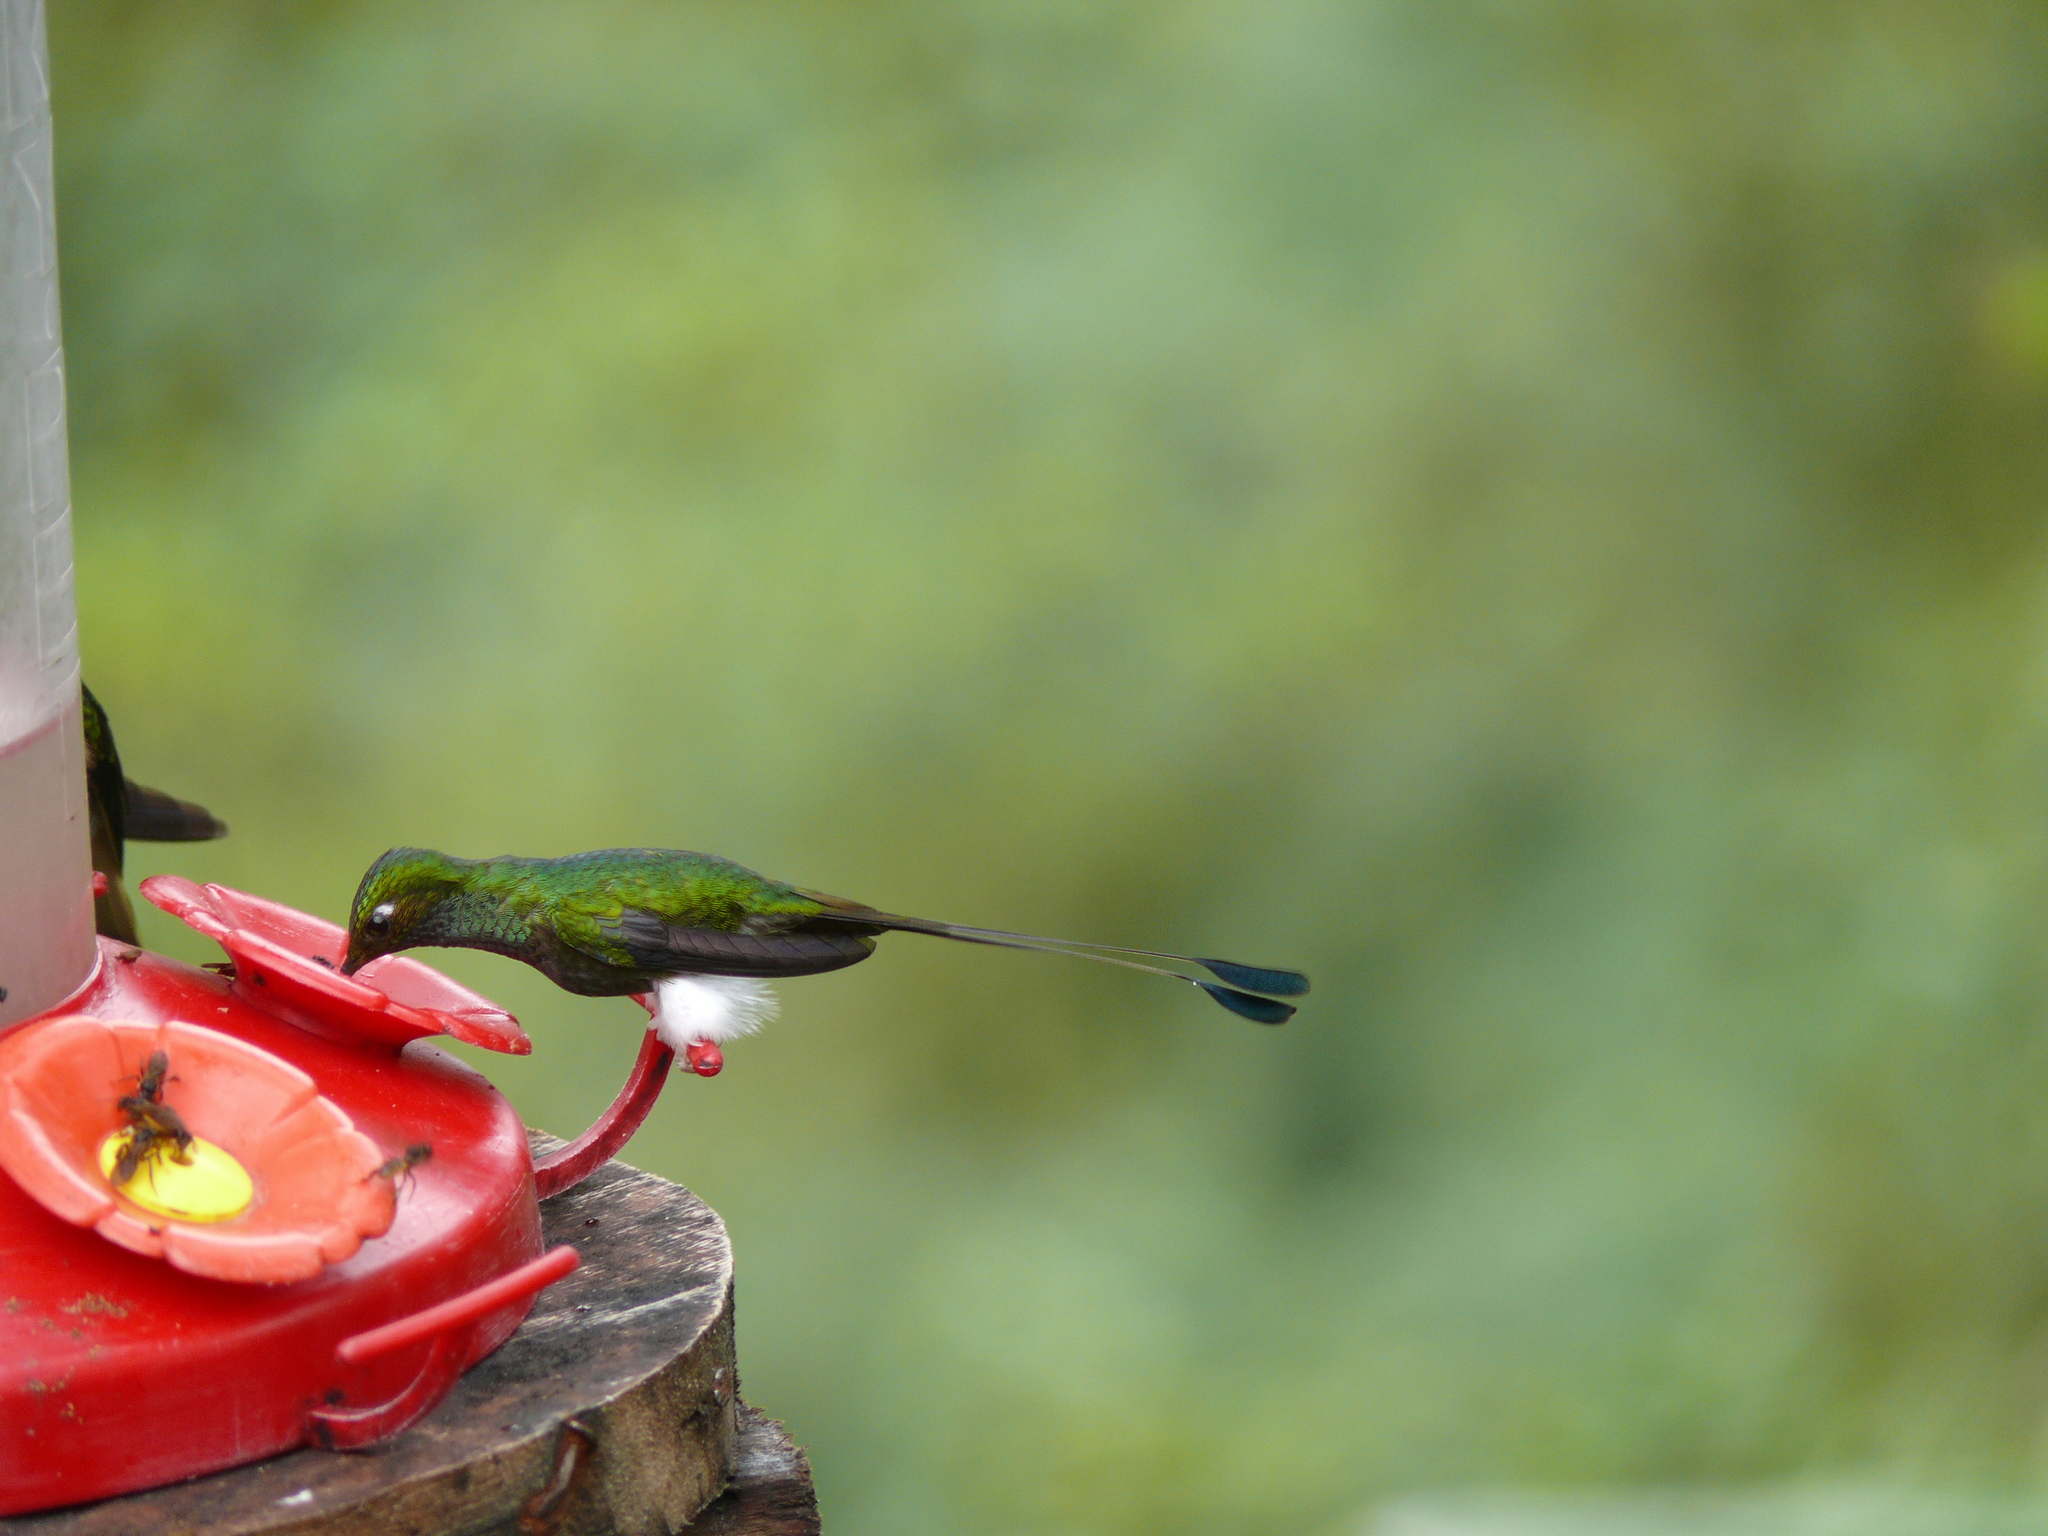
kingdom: Animalia
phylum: Chordata
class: Aves
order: Apodiformes
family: Trochilidae
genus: Ocreatus
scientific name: Ocreatus underwoodii
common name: Booted racket-tail
